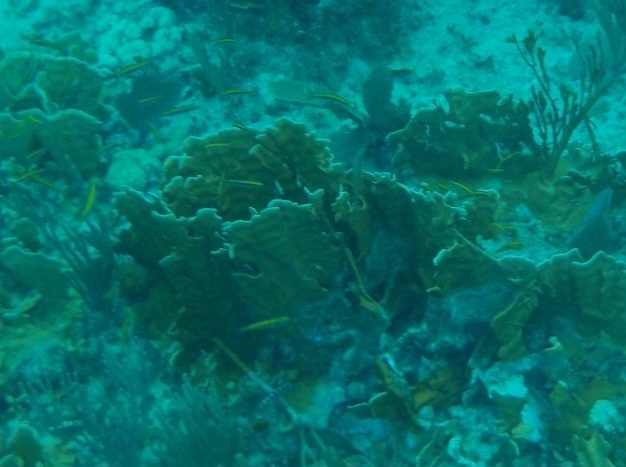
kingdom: Animalia
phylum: Cnidaria
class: Hydrozoa
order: Anthoathecata
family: Milleporidae
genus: Millepora
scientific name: Millepora complanata
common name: Bladed fire coral
